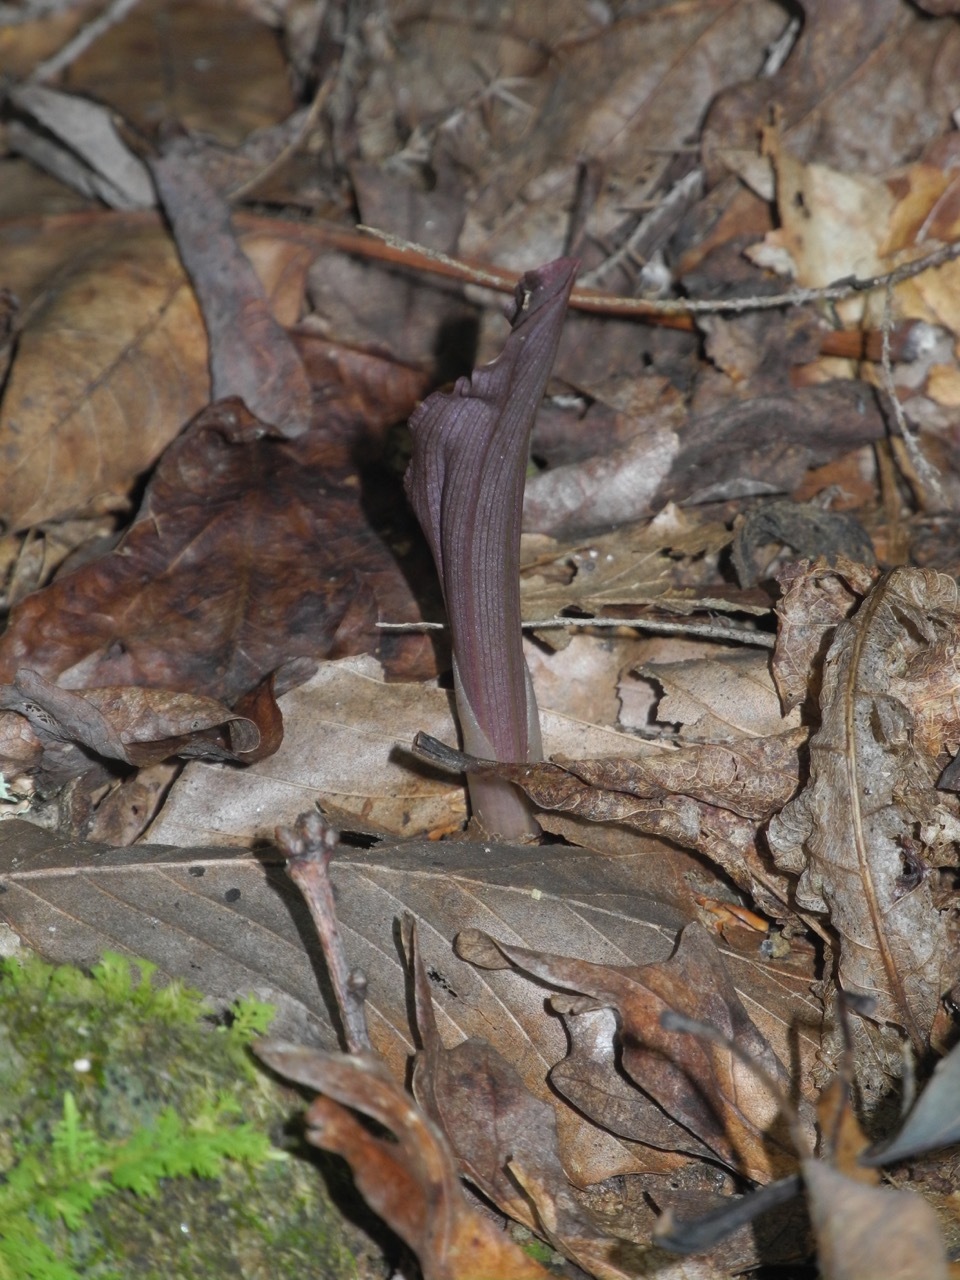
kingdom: Plantae
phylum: Tracheophyta
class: Liliopsida
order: Asparagales
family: Orchidaceae
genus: Aplectrum
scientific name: Aplectrum hyemale
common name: Adam-and-eve
